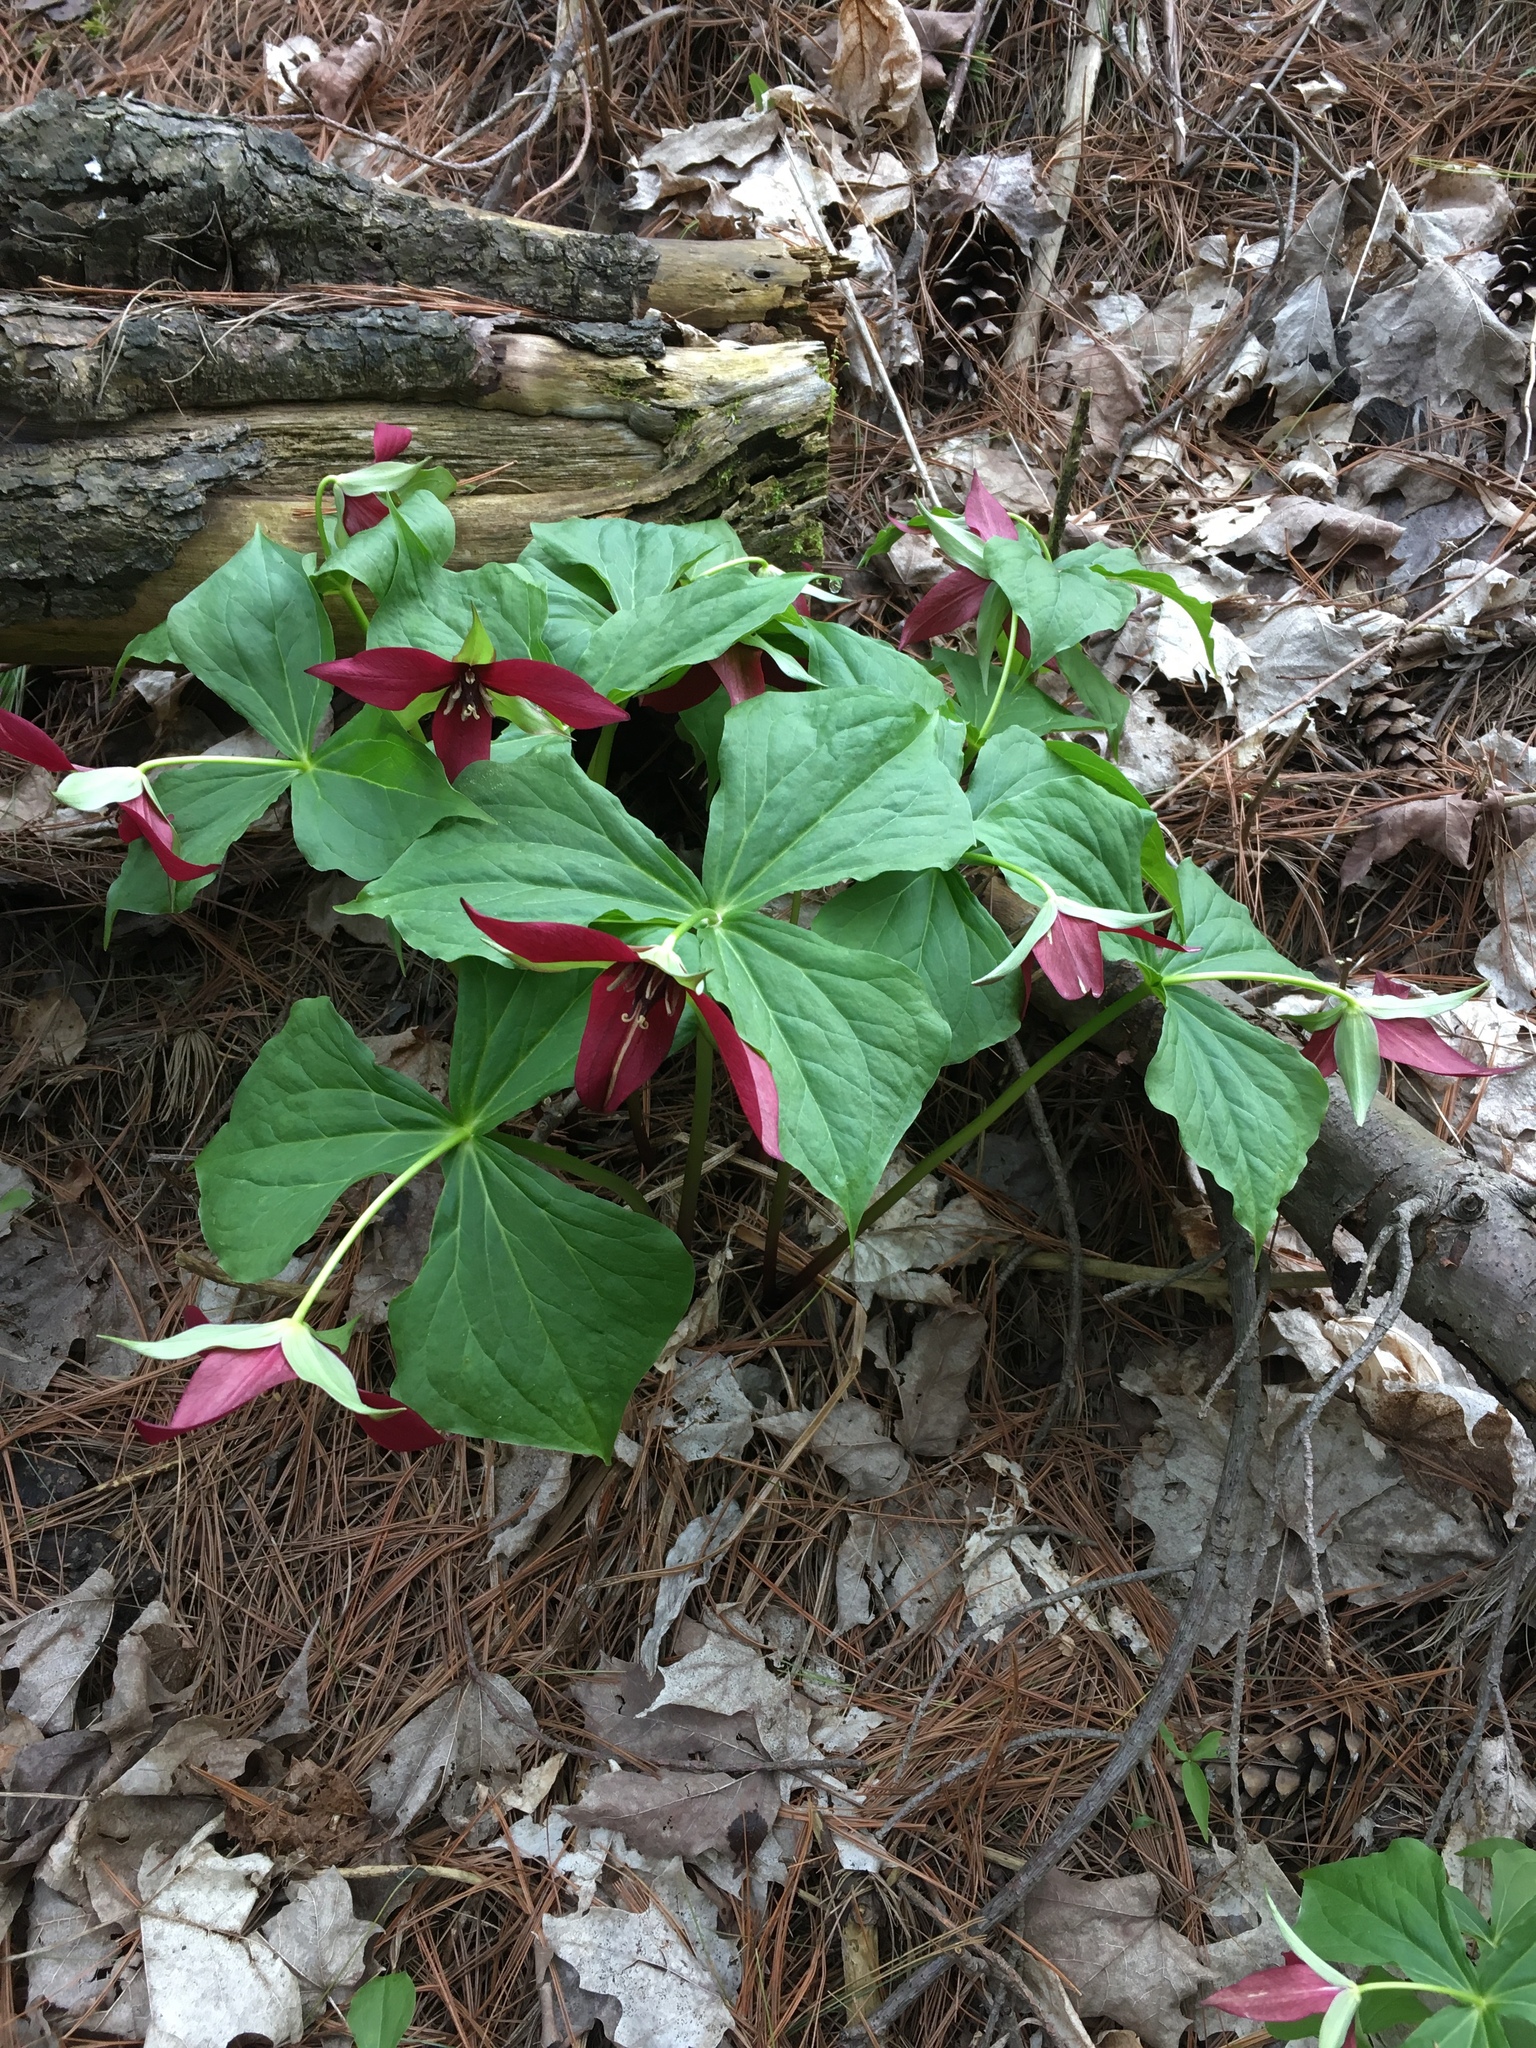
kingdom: Plantae
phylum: Tracheophyta
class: Liliopsida
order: Liliales
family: Melanthiaceae
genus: Trillium
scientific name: Trillium erectum
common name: Purple trillium
